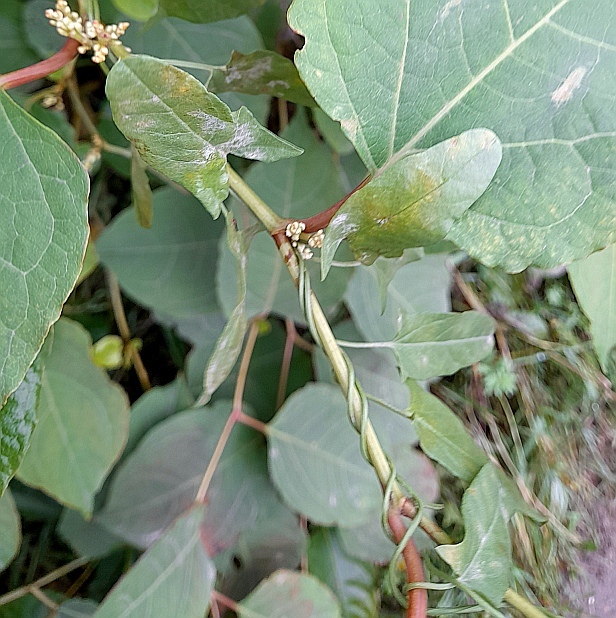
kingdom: Plantae
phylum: Tracheophyta
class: Magnoliopsida
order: Solanales
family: Convolvulaceae
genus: Convolvulus
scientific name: Convolvulus arvensis
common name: Field bindweed
